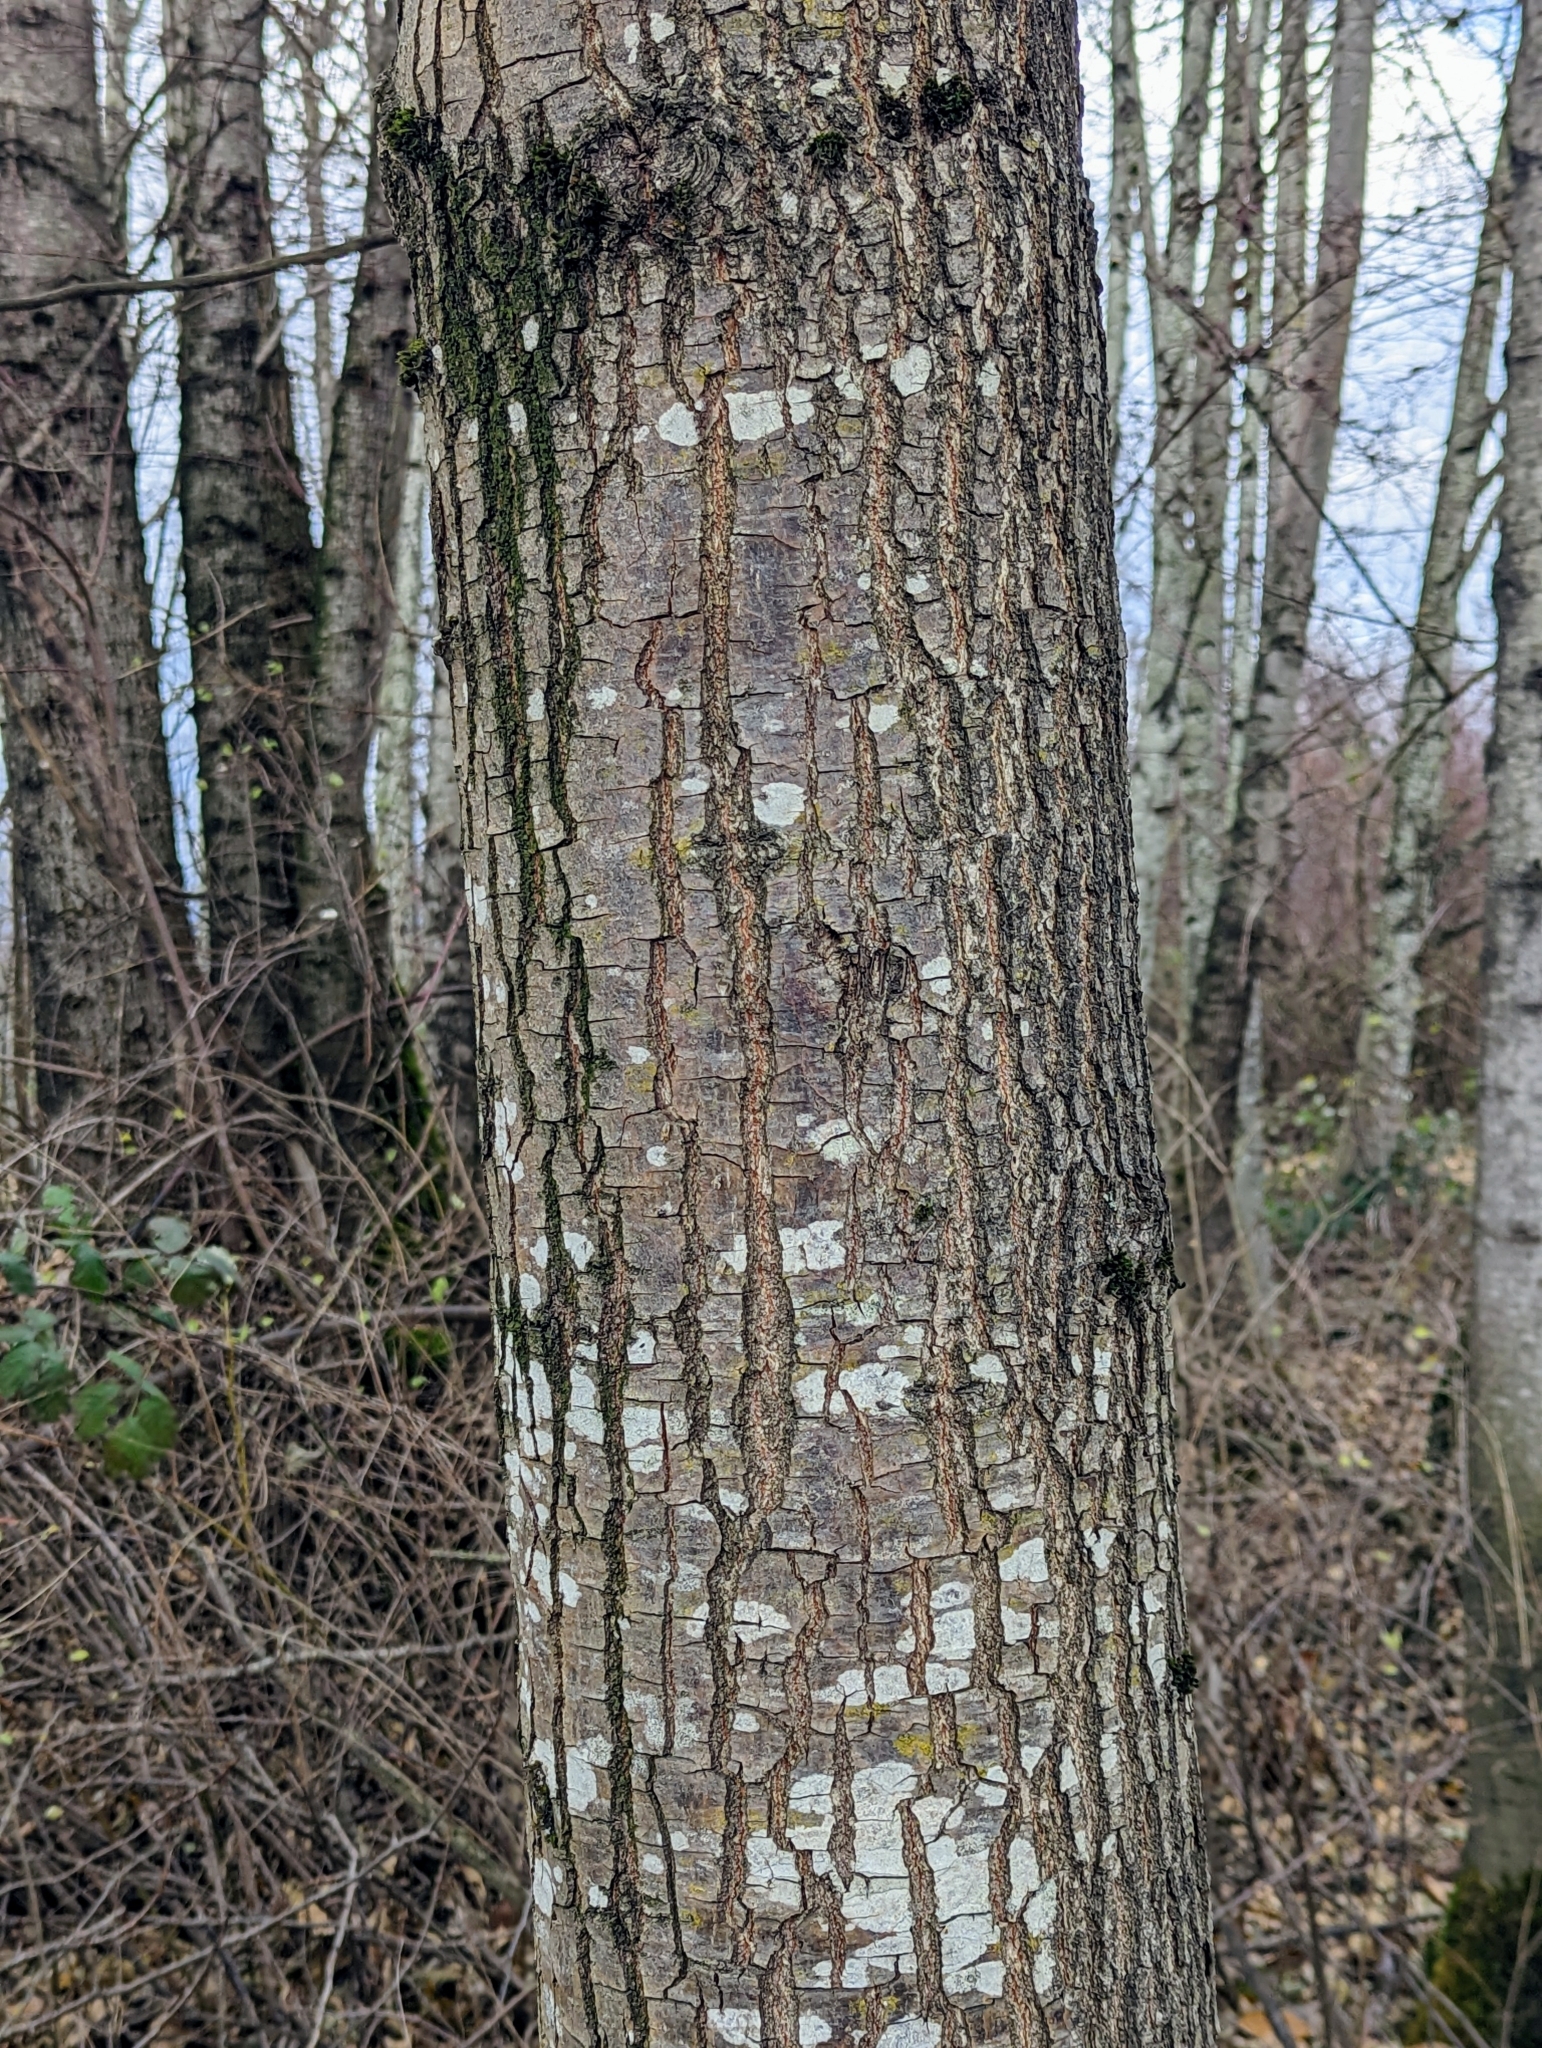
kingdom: Plantae
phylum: Tracheophyta
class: Magnoliopsida
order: Fagales
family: Fagaceae
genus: Quercus
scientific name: Quercus robur
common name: Pedunculate oak
